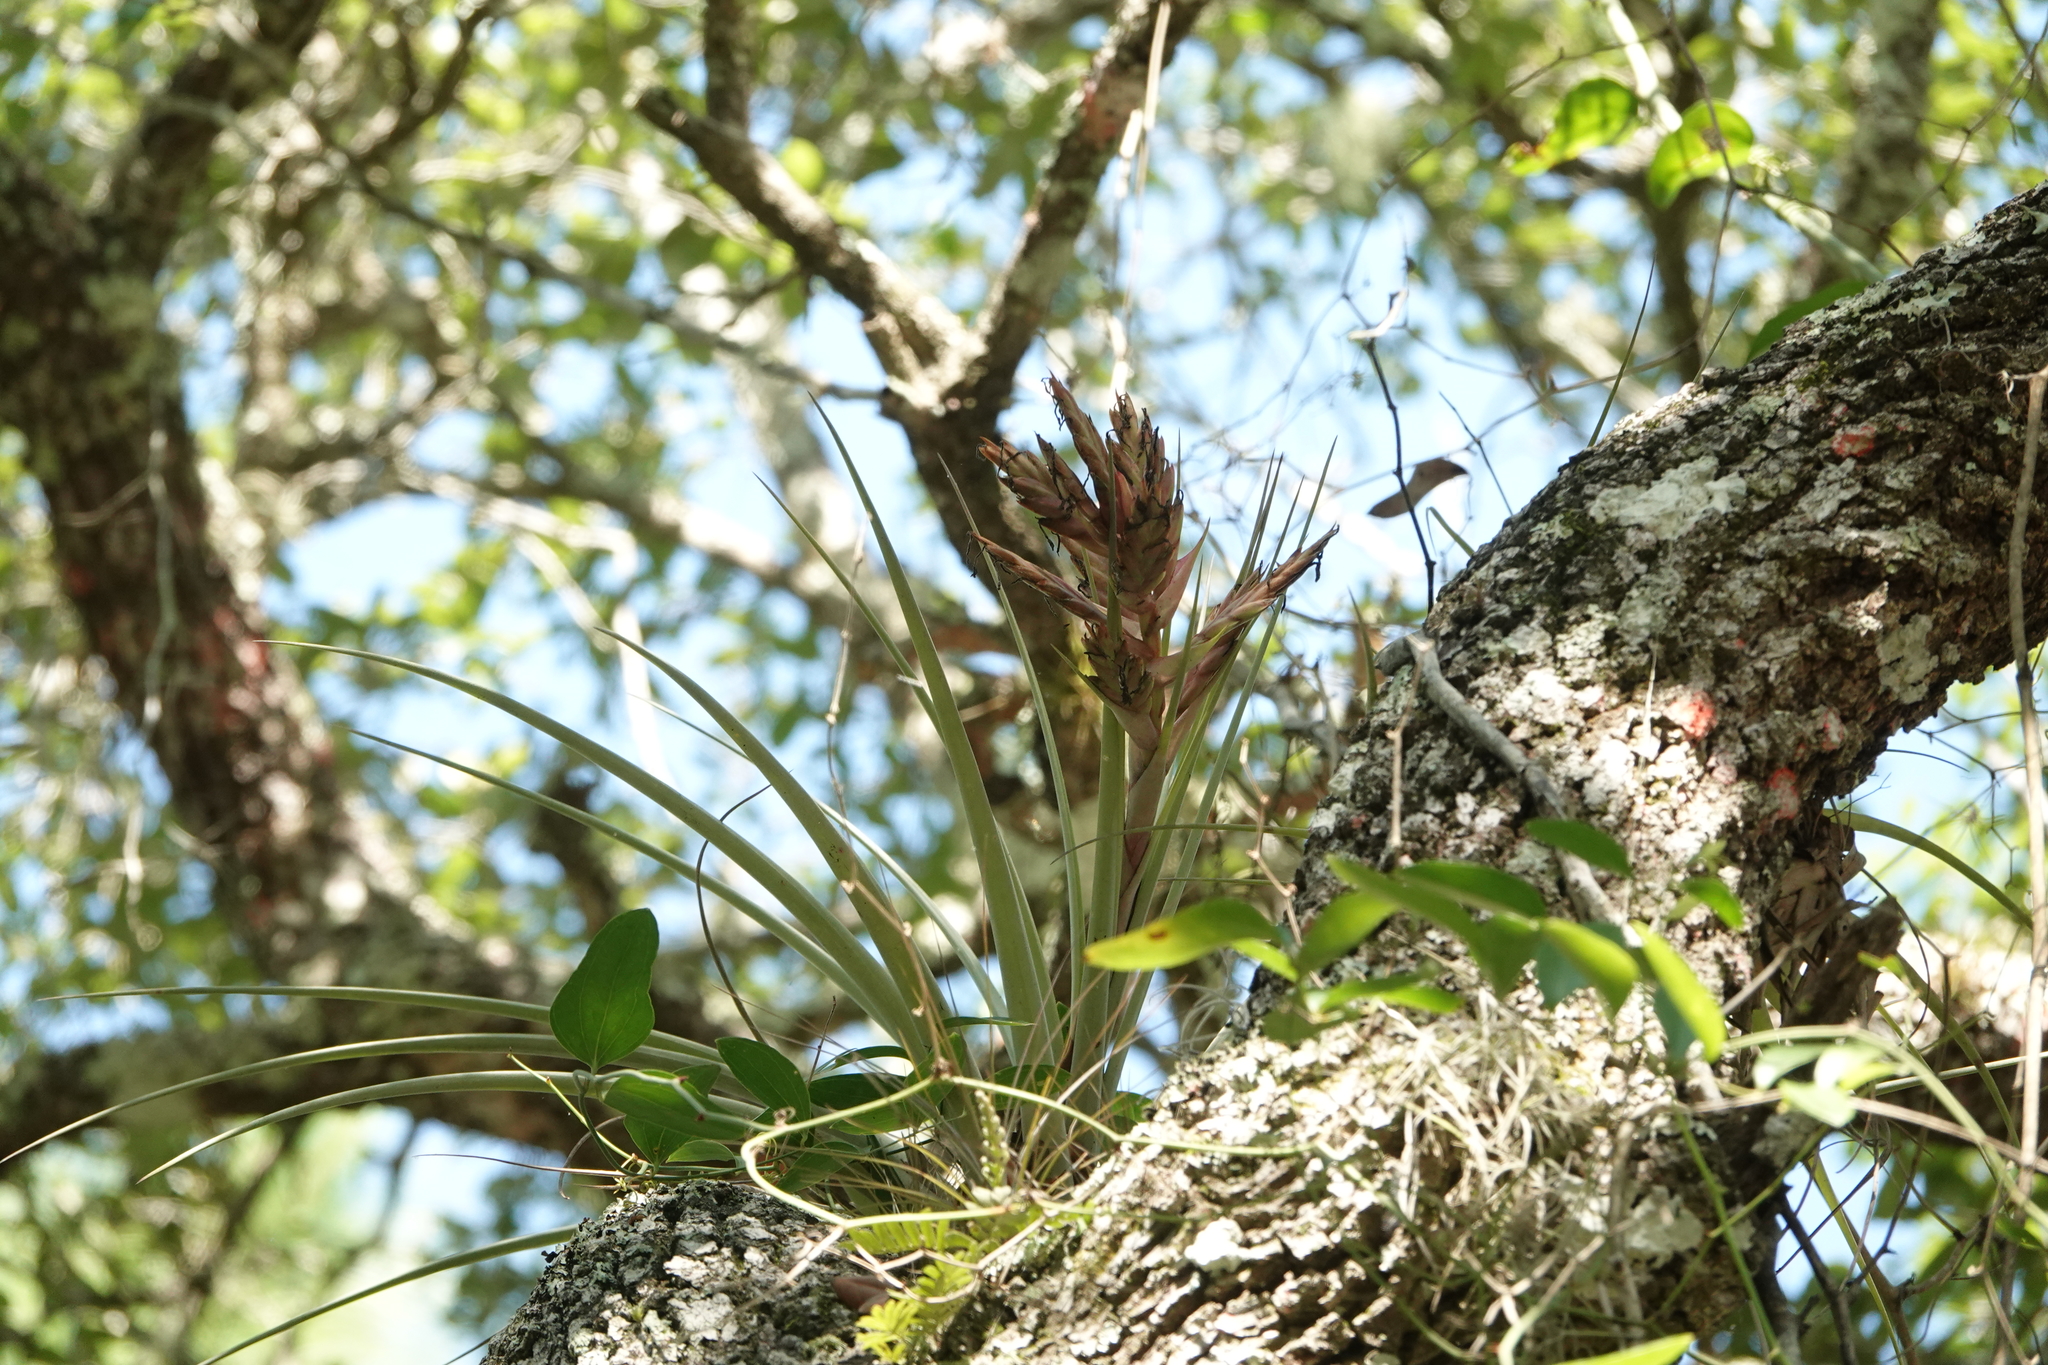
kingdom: Plantae
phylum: Tracheophyta
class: Liliopsida
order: Poales
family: Bromeliaceae
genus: Tillandsia
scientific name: Tillandsia fasciculata
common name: Giant airplant
